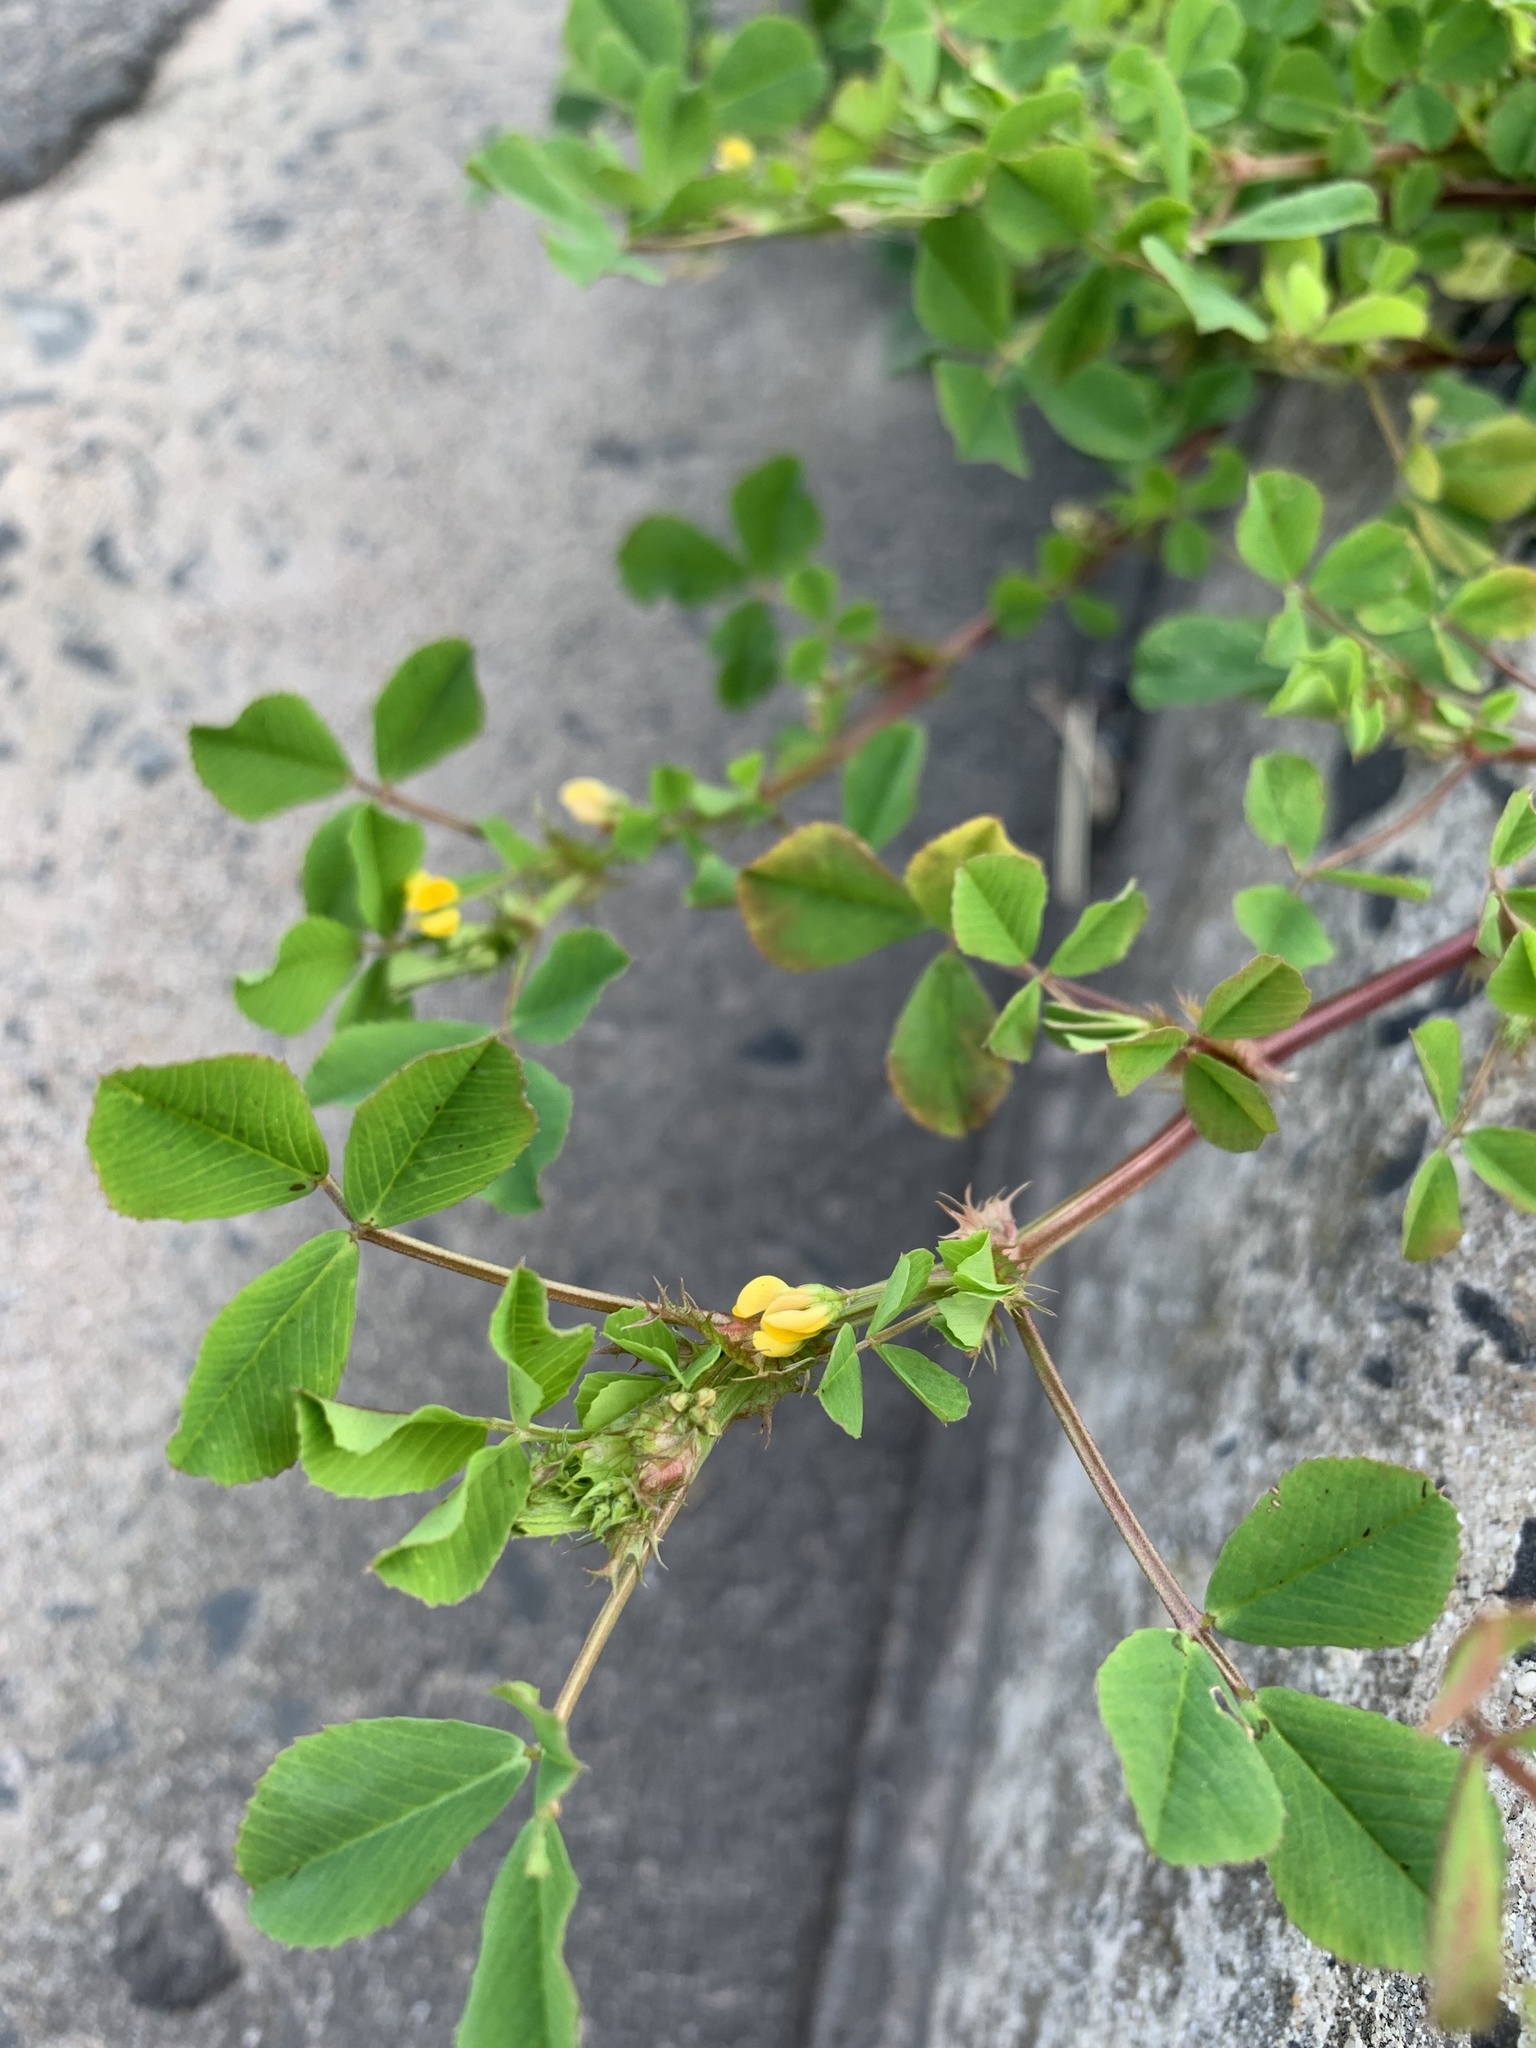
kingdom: Plantae
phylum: Tracheophyta
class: Magnoliopsida
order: Fabales
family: Fabaceae
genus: Medicago
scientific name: Medicago polymorpha
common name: Burclover
